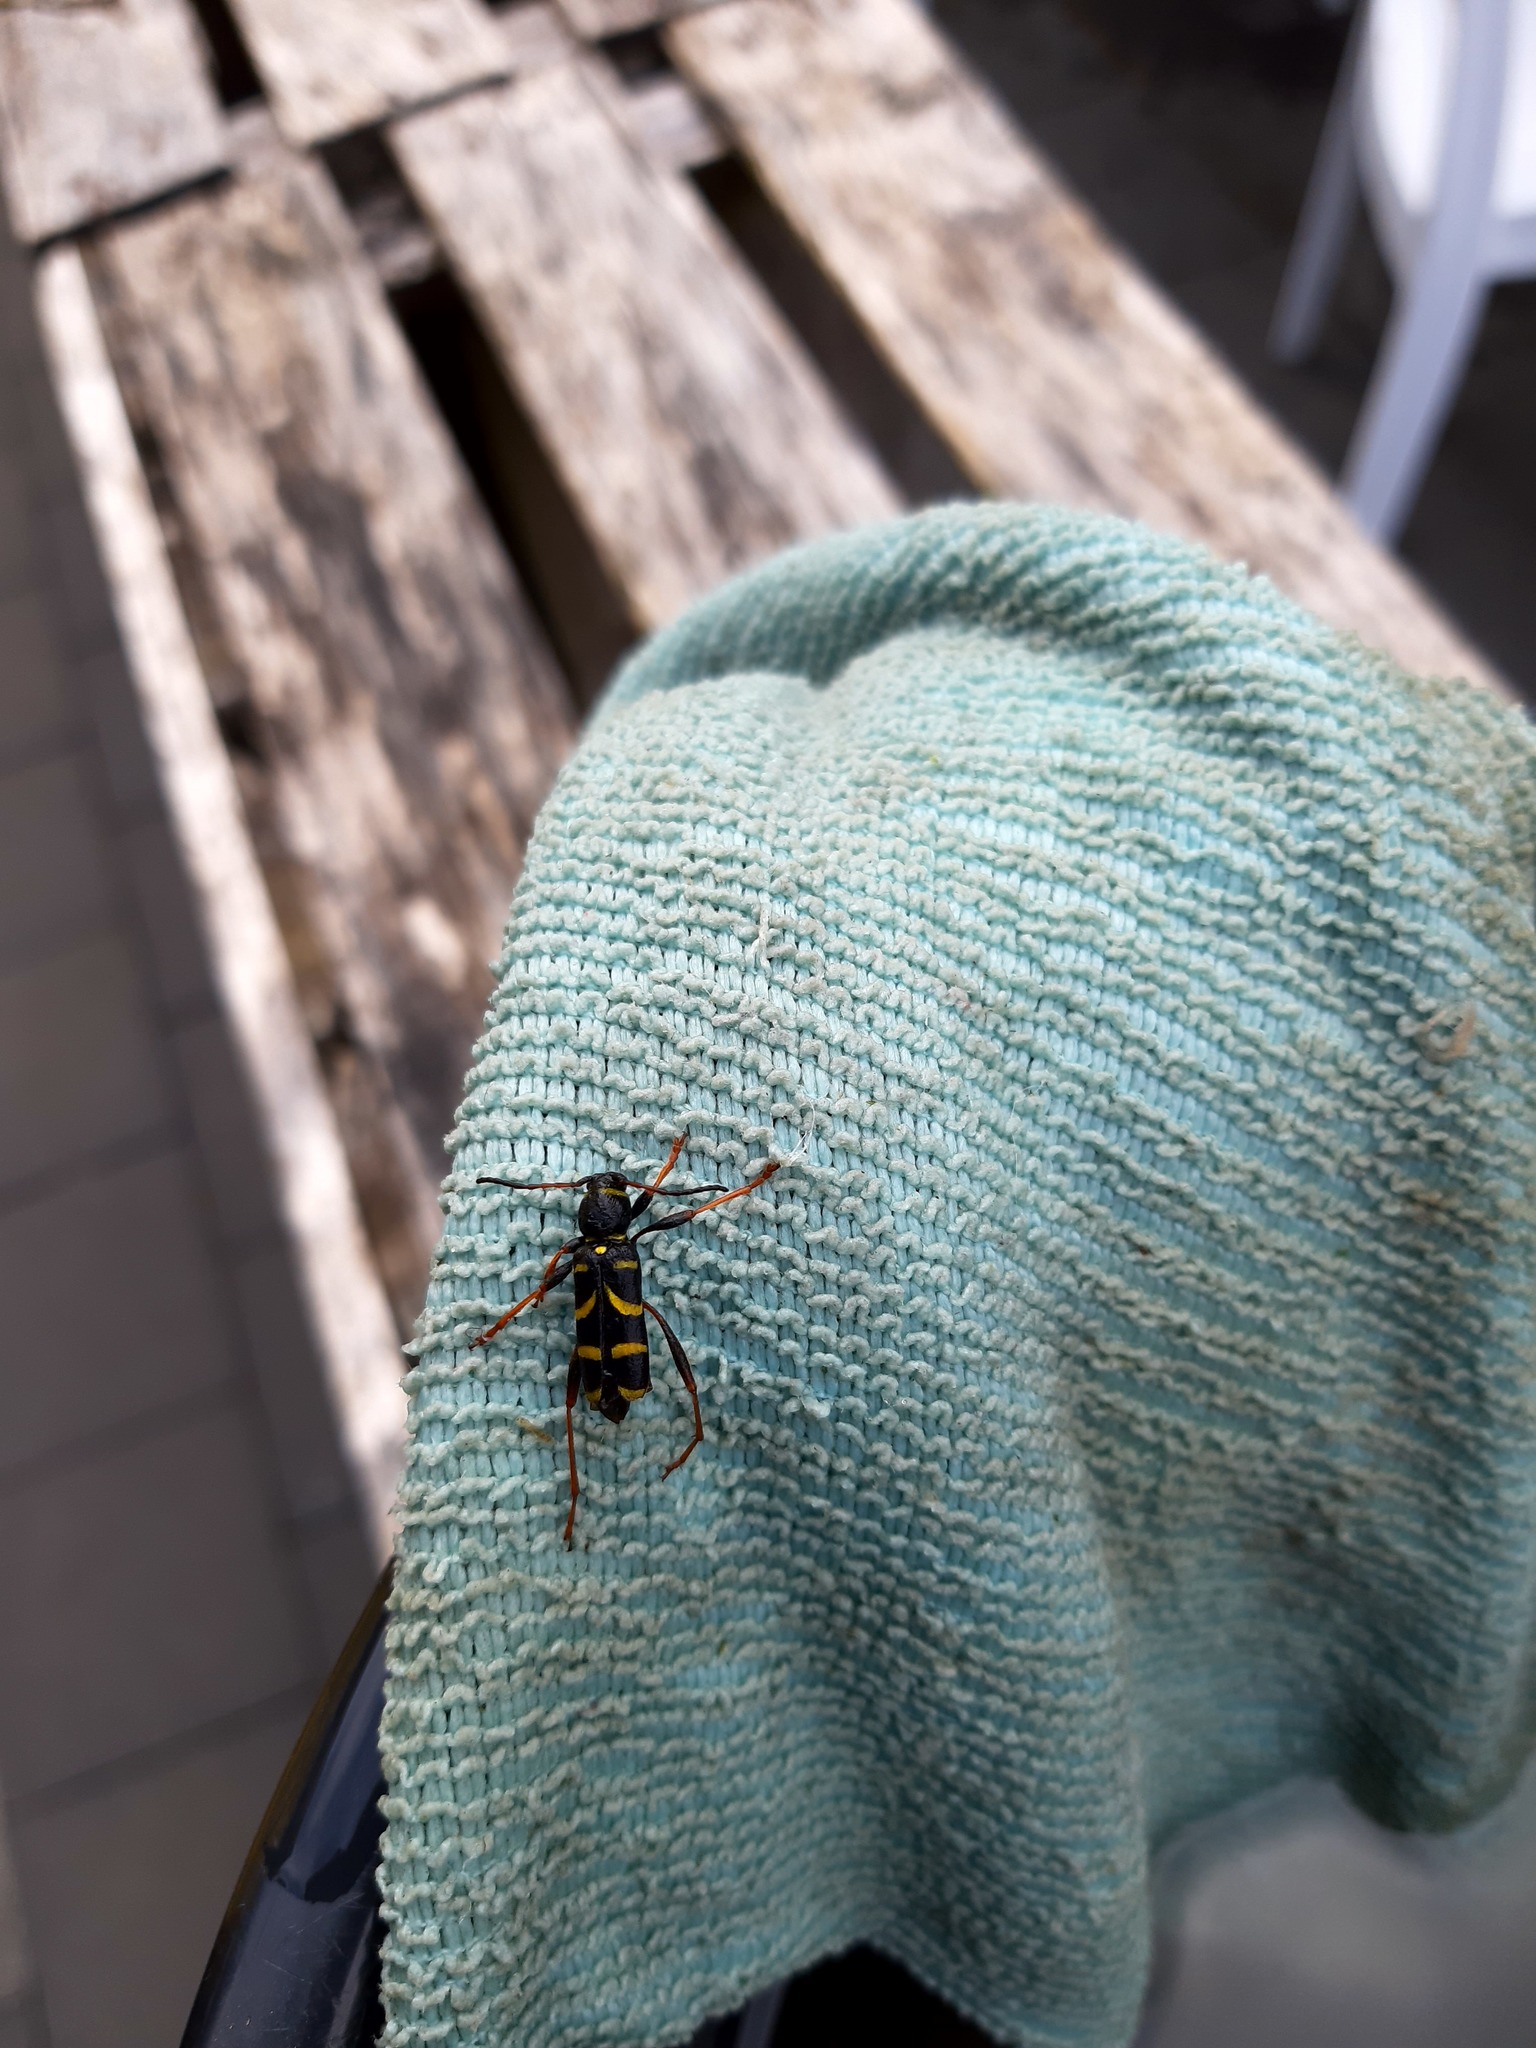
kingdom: Animalia
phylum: Arthropoda
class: Insecta
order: Coleoptera
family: Cerambycidae
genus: Clytus
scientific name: Clytus arietis
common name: Wasp beetle
